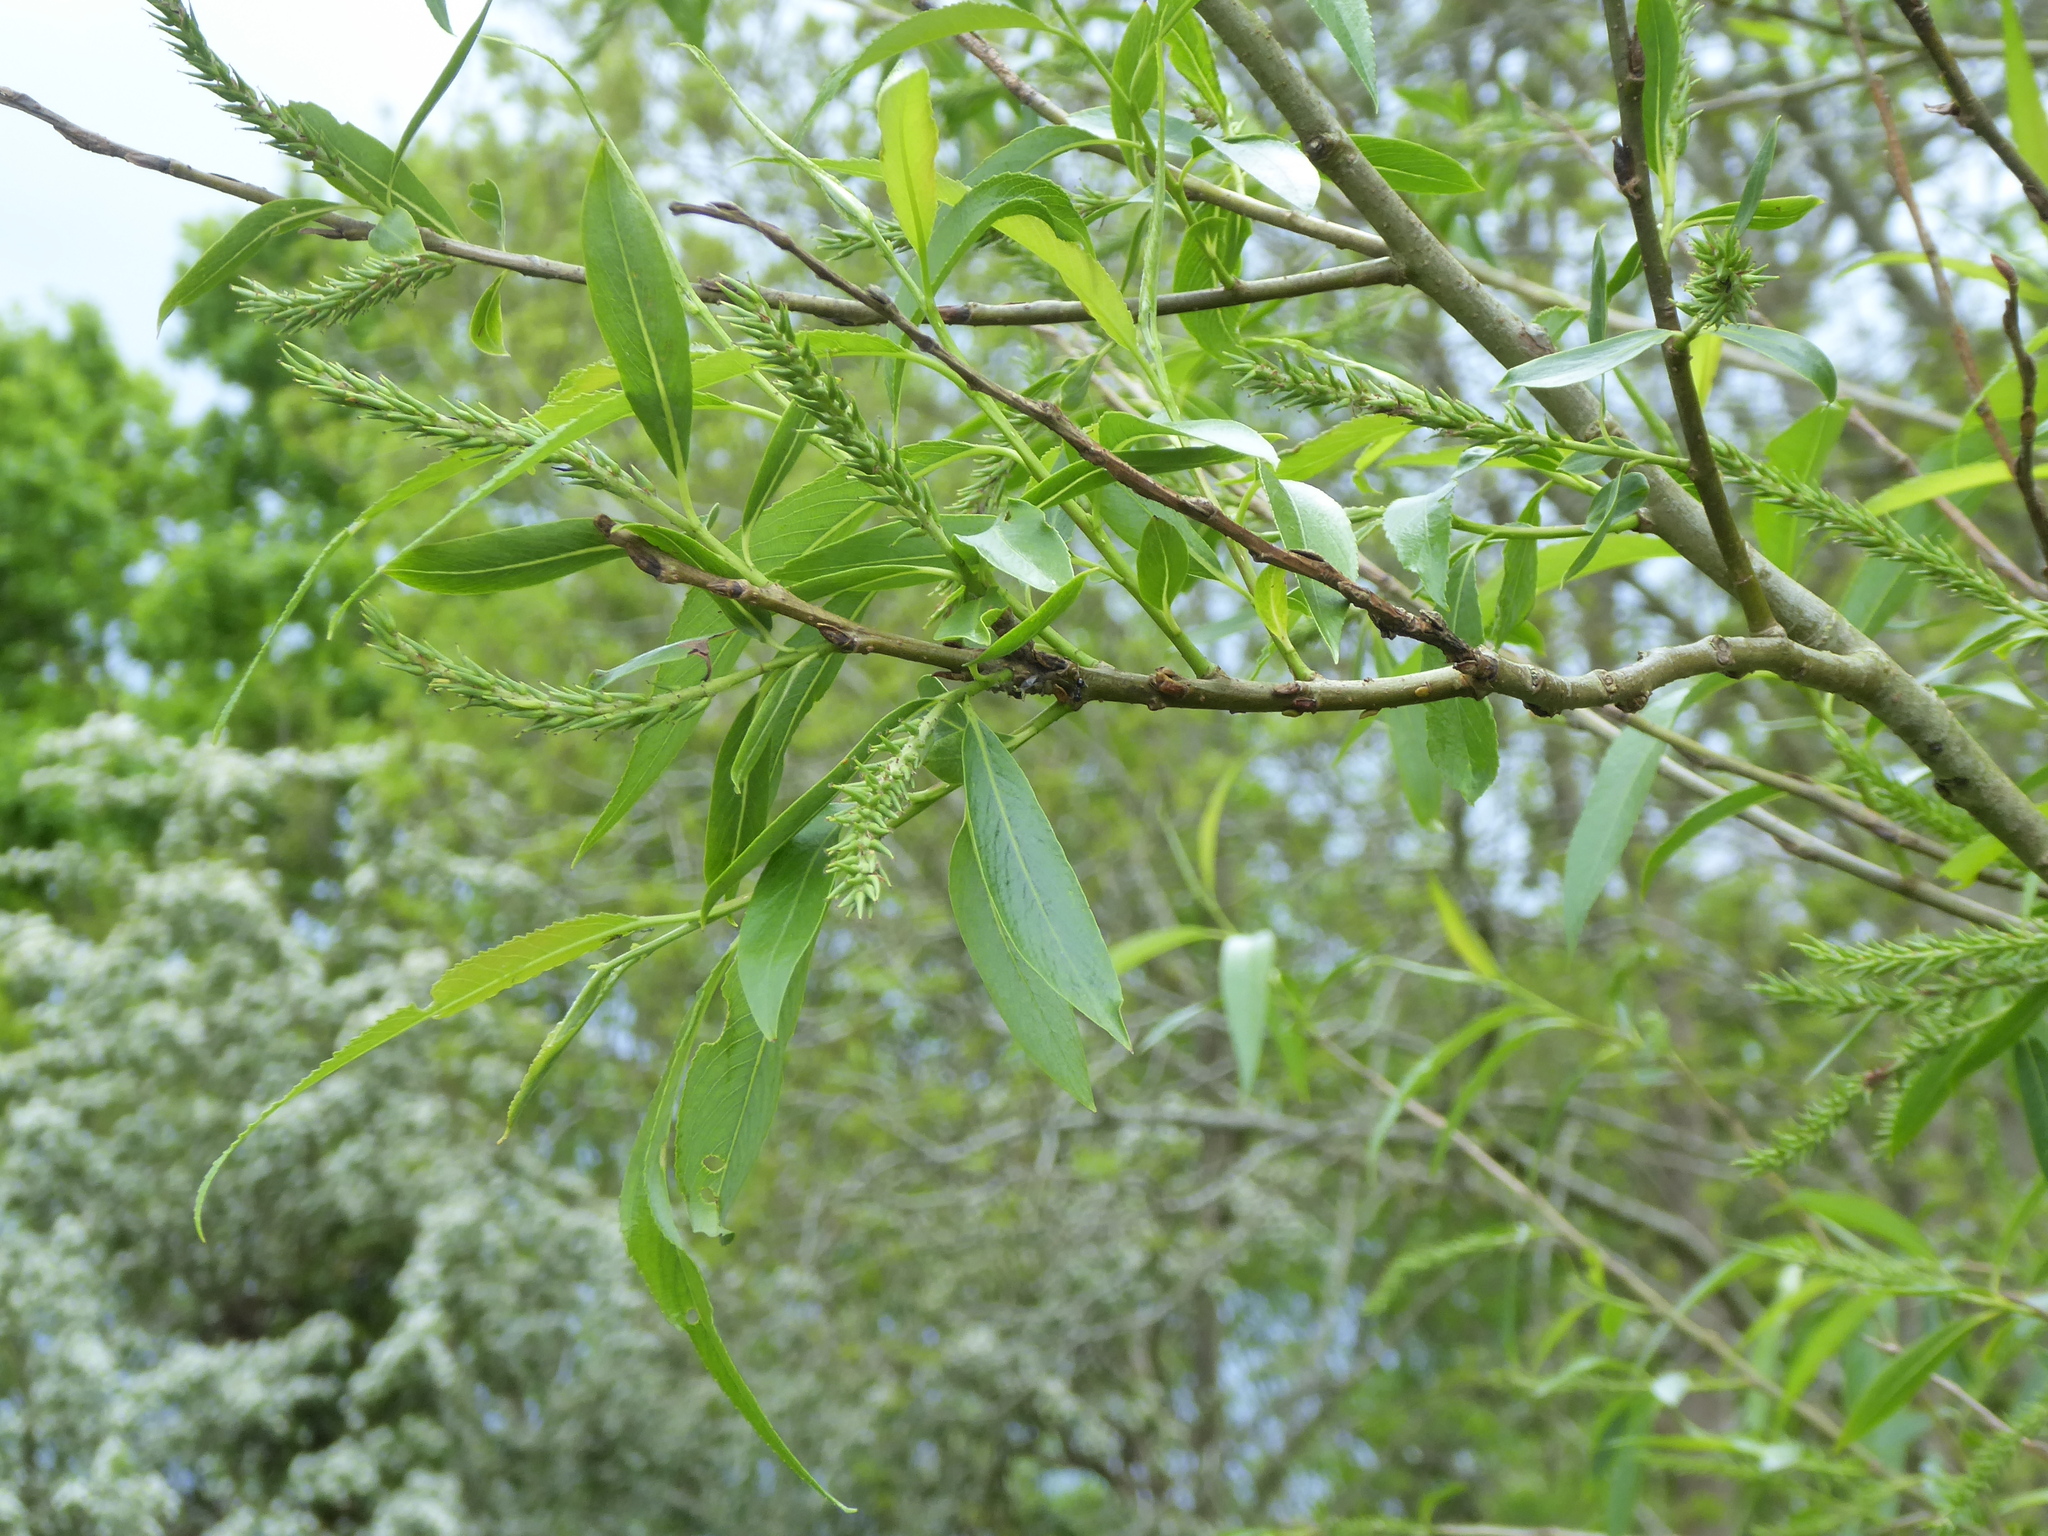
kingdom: Plantae
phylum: Tracheophyta
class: Magnoliopsida
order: Malpighiales
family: Salicaceae
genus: Salix
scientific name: Salix fragilis
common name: Crack willow
